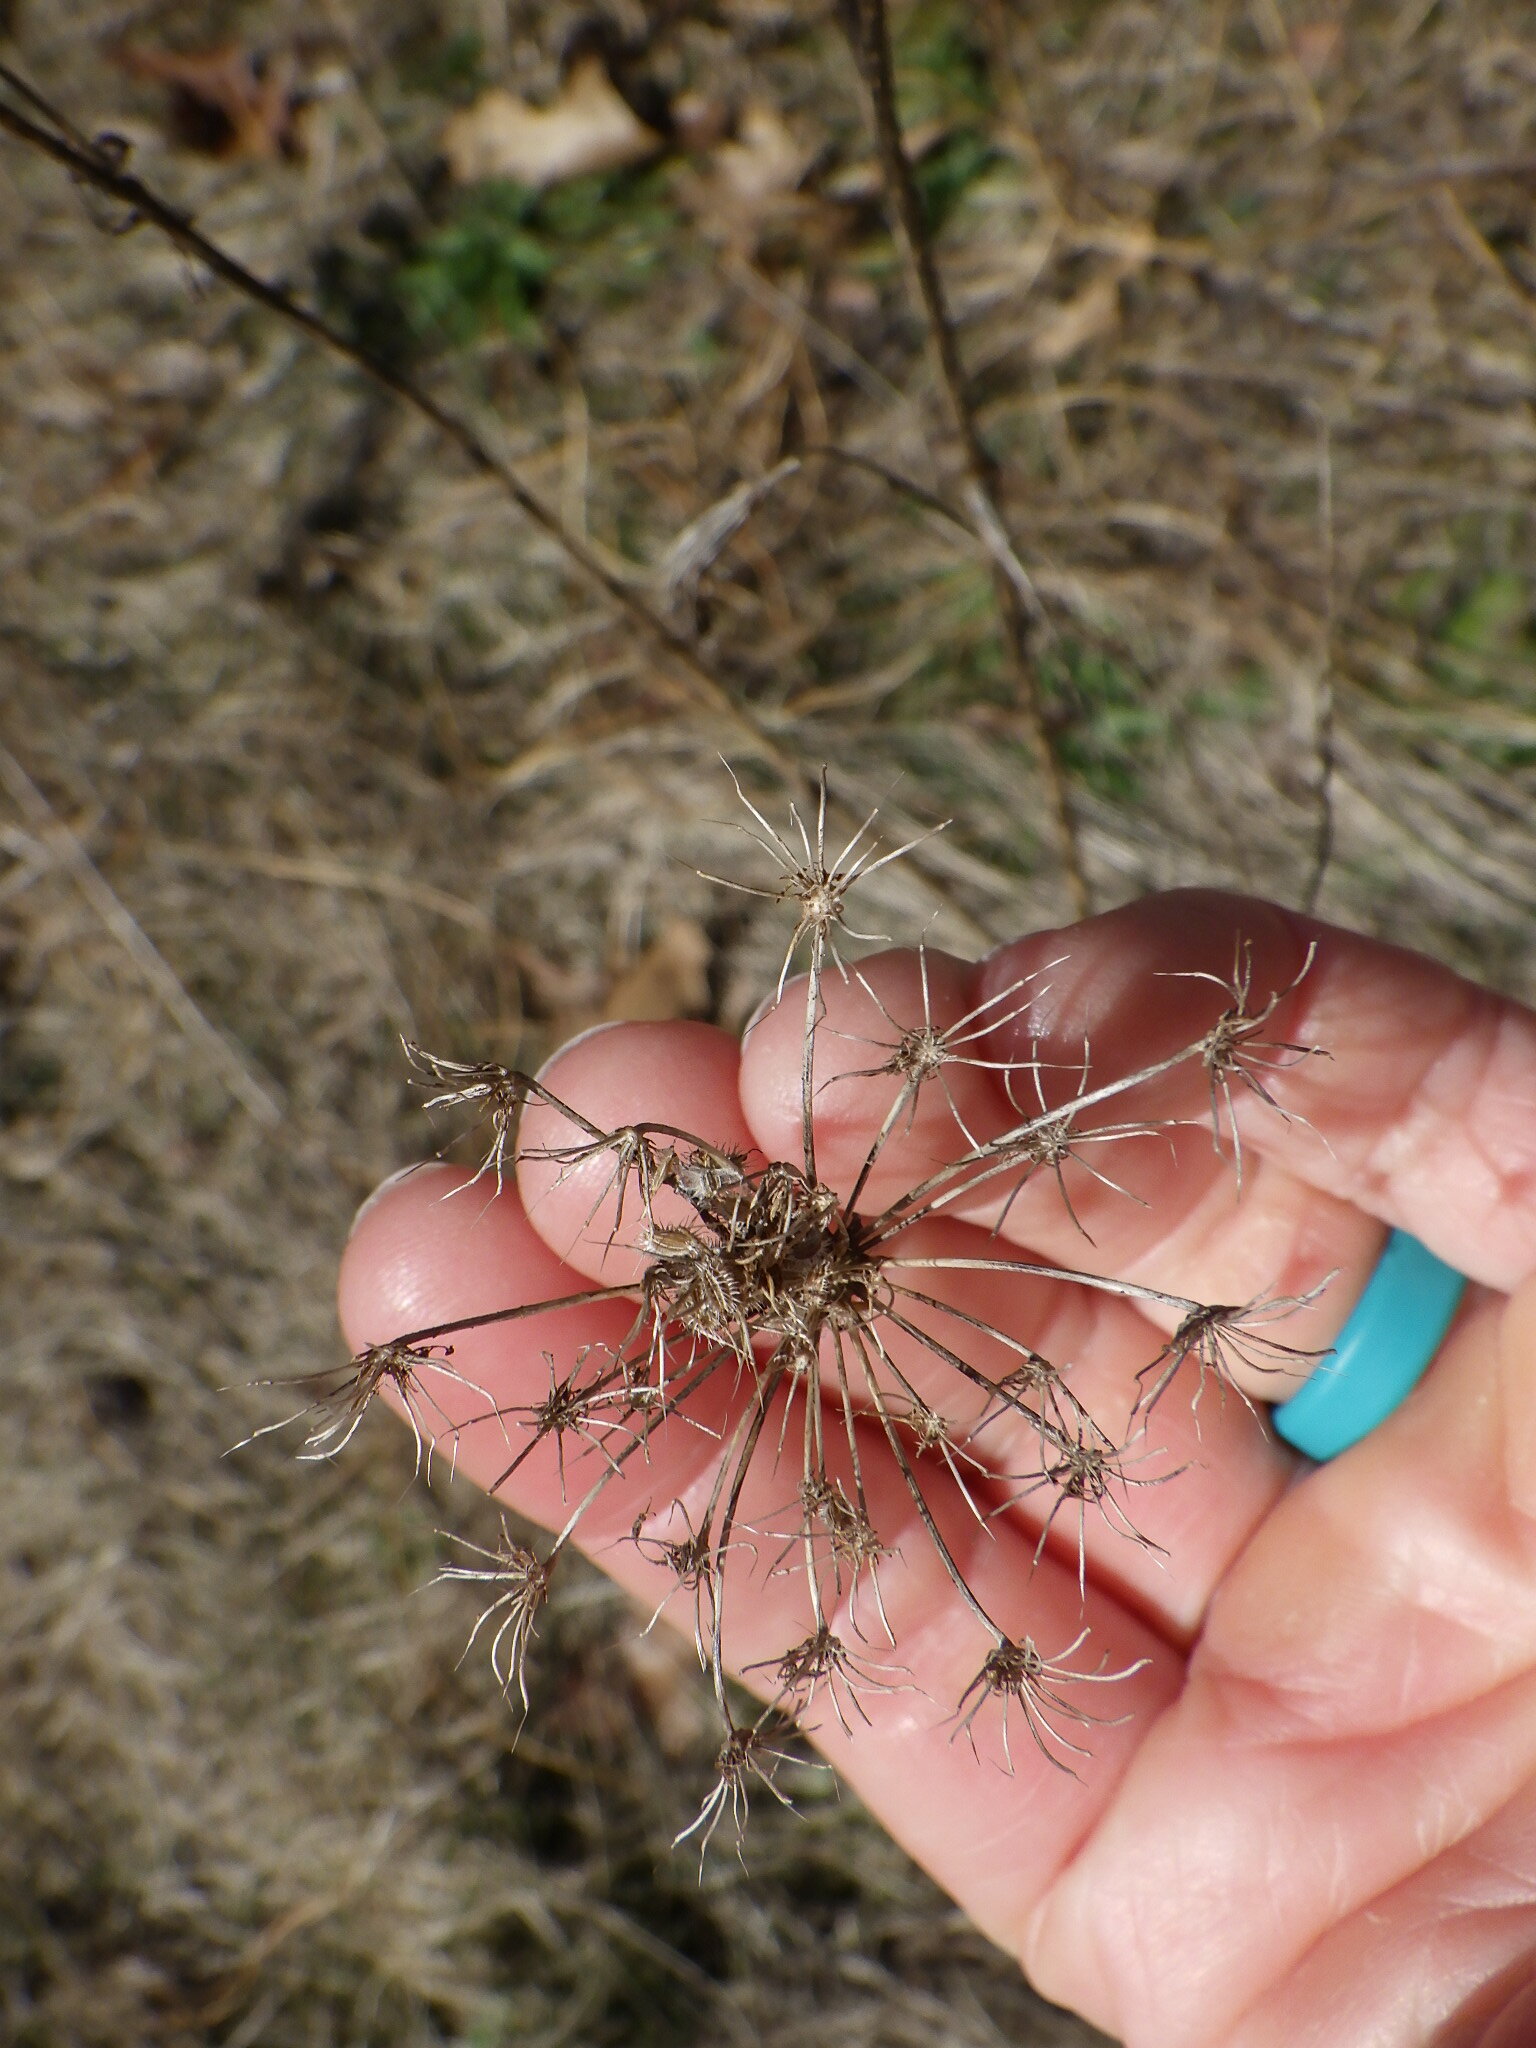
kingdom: Plantae
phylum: Tracheophyta
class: Magnoliopsida
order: Apiales
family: Apiaceae
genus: Daucus
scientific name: Daucus carota
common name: Wild carrot
